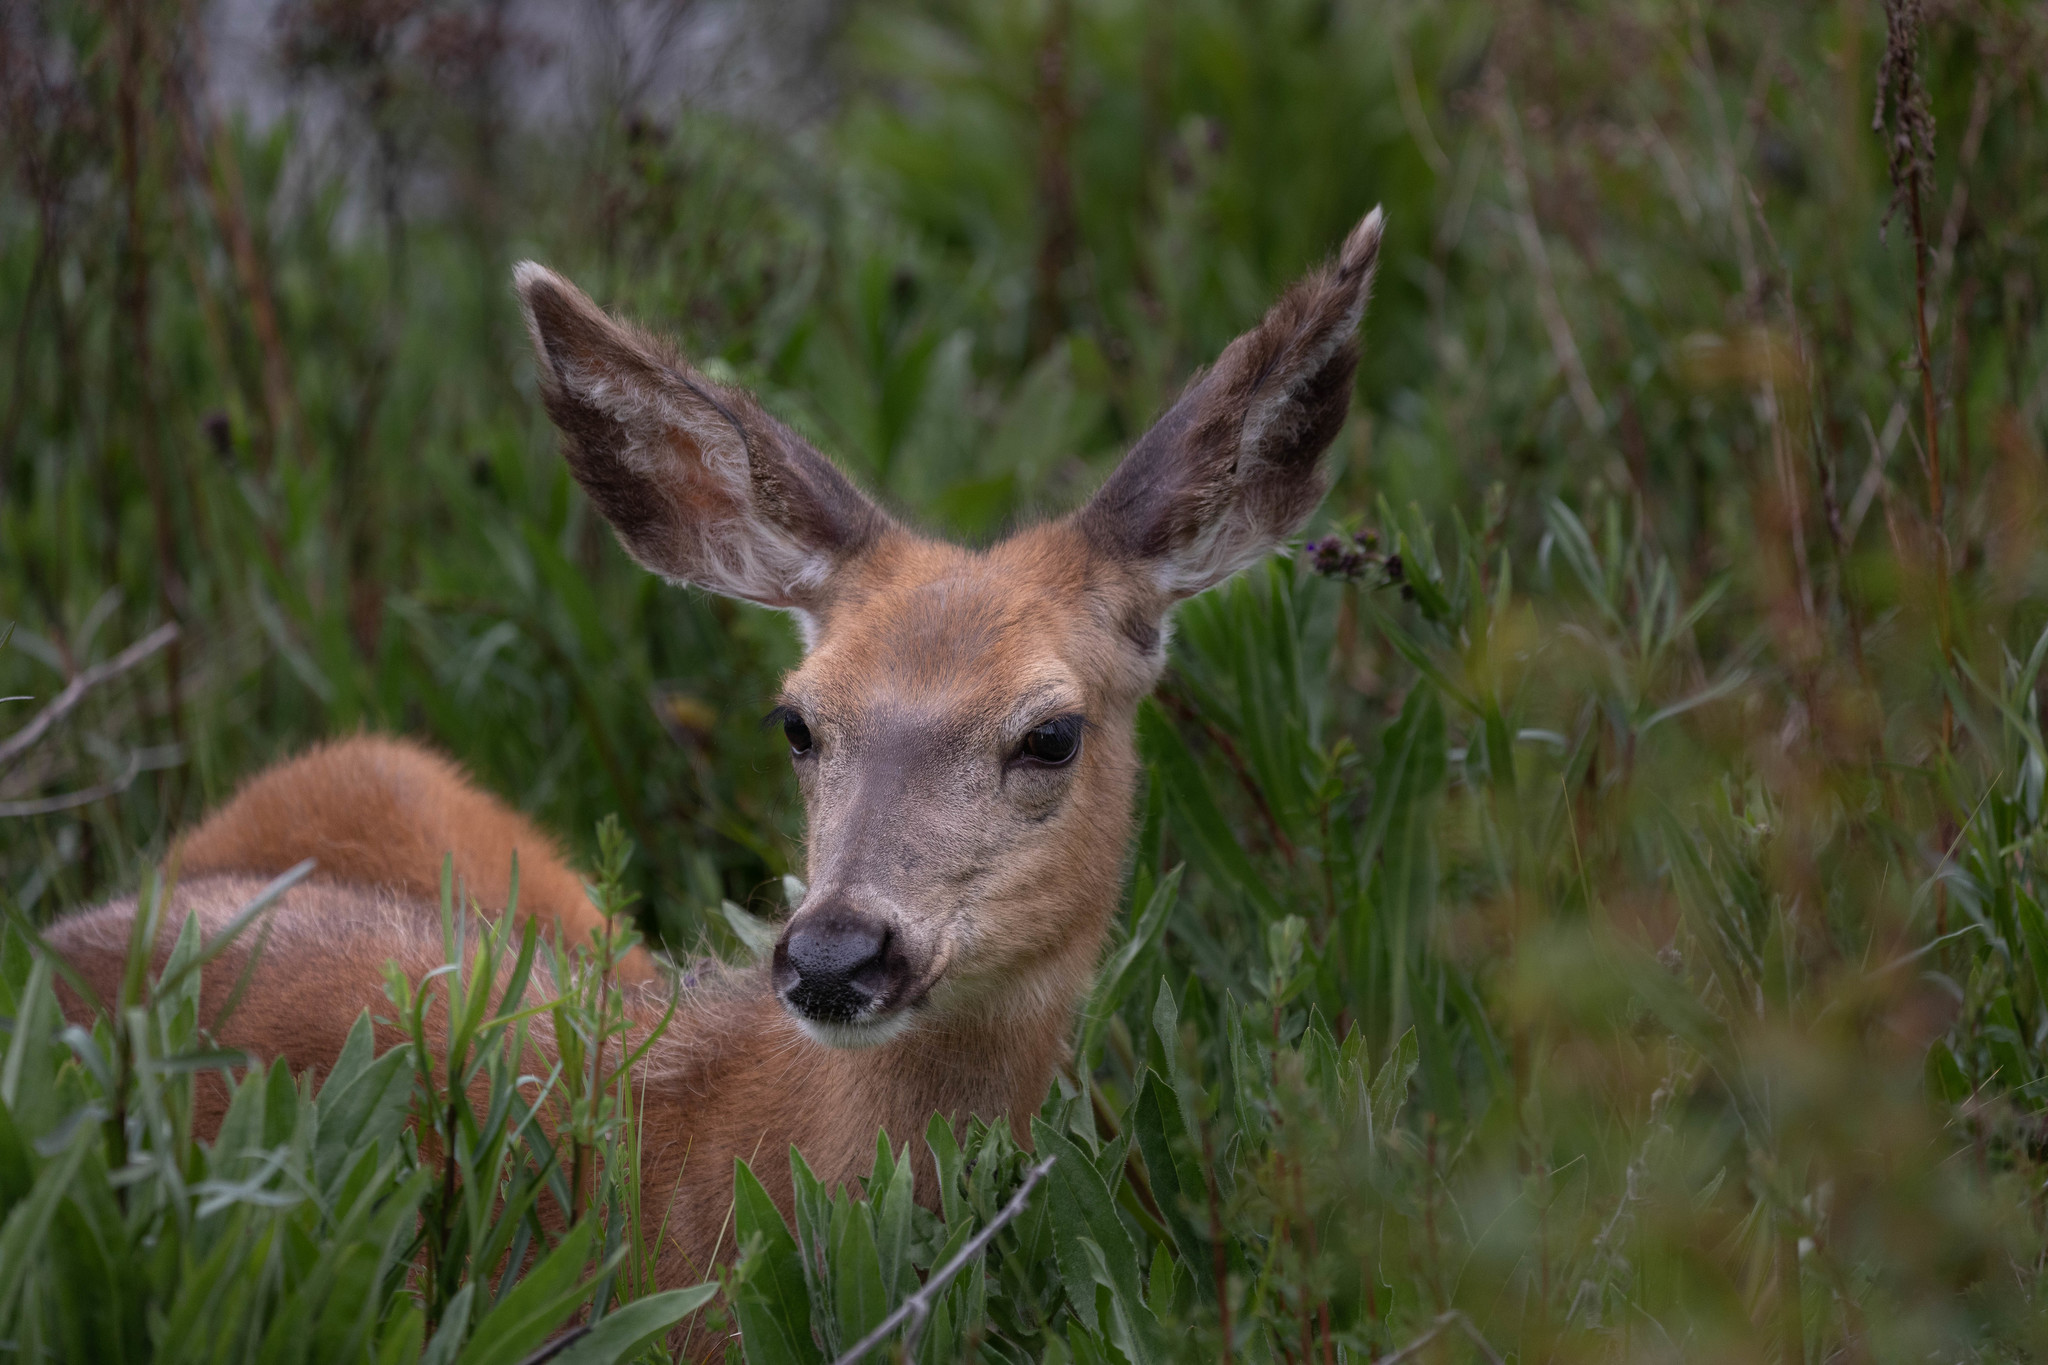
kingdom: Animalia
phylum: Chordata
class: Mammalia
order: Artiodactyla
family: Cervidae
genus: Odocoileus
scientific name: Odocoileus hemionus
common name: Mule deer
